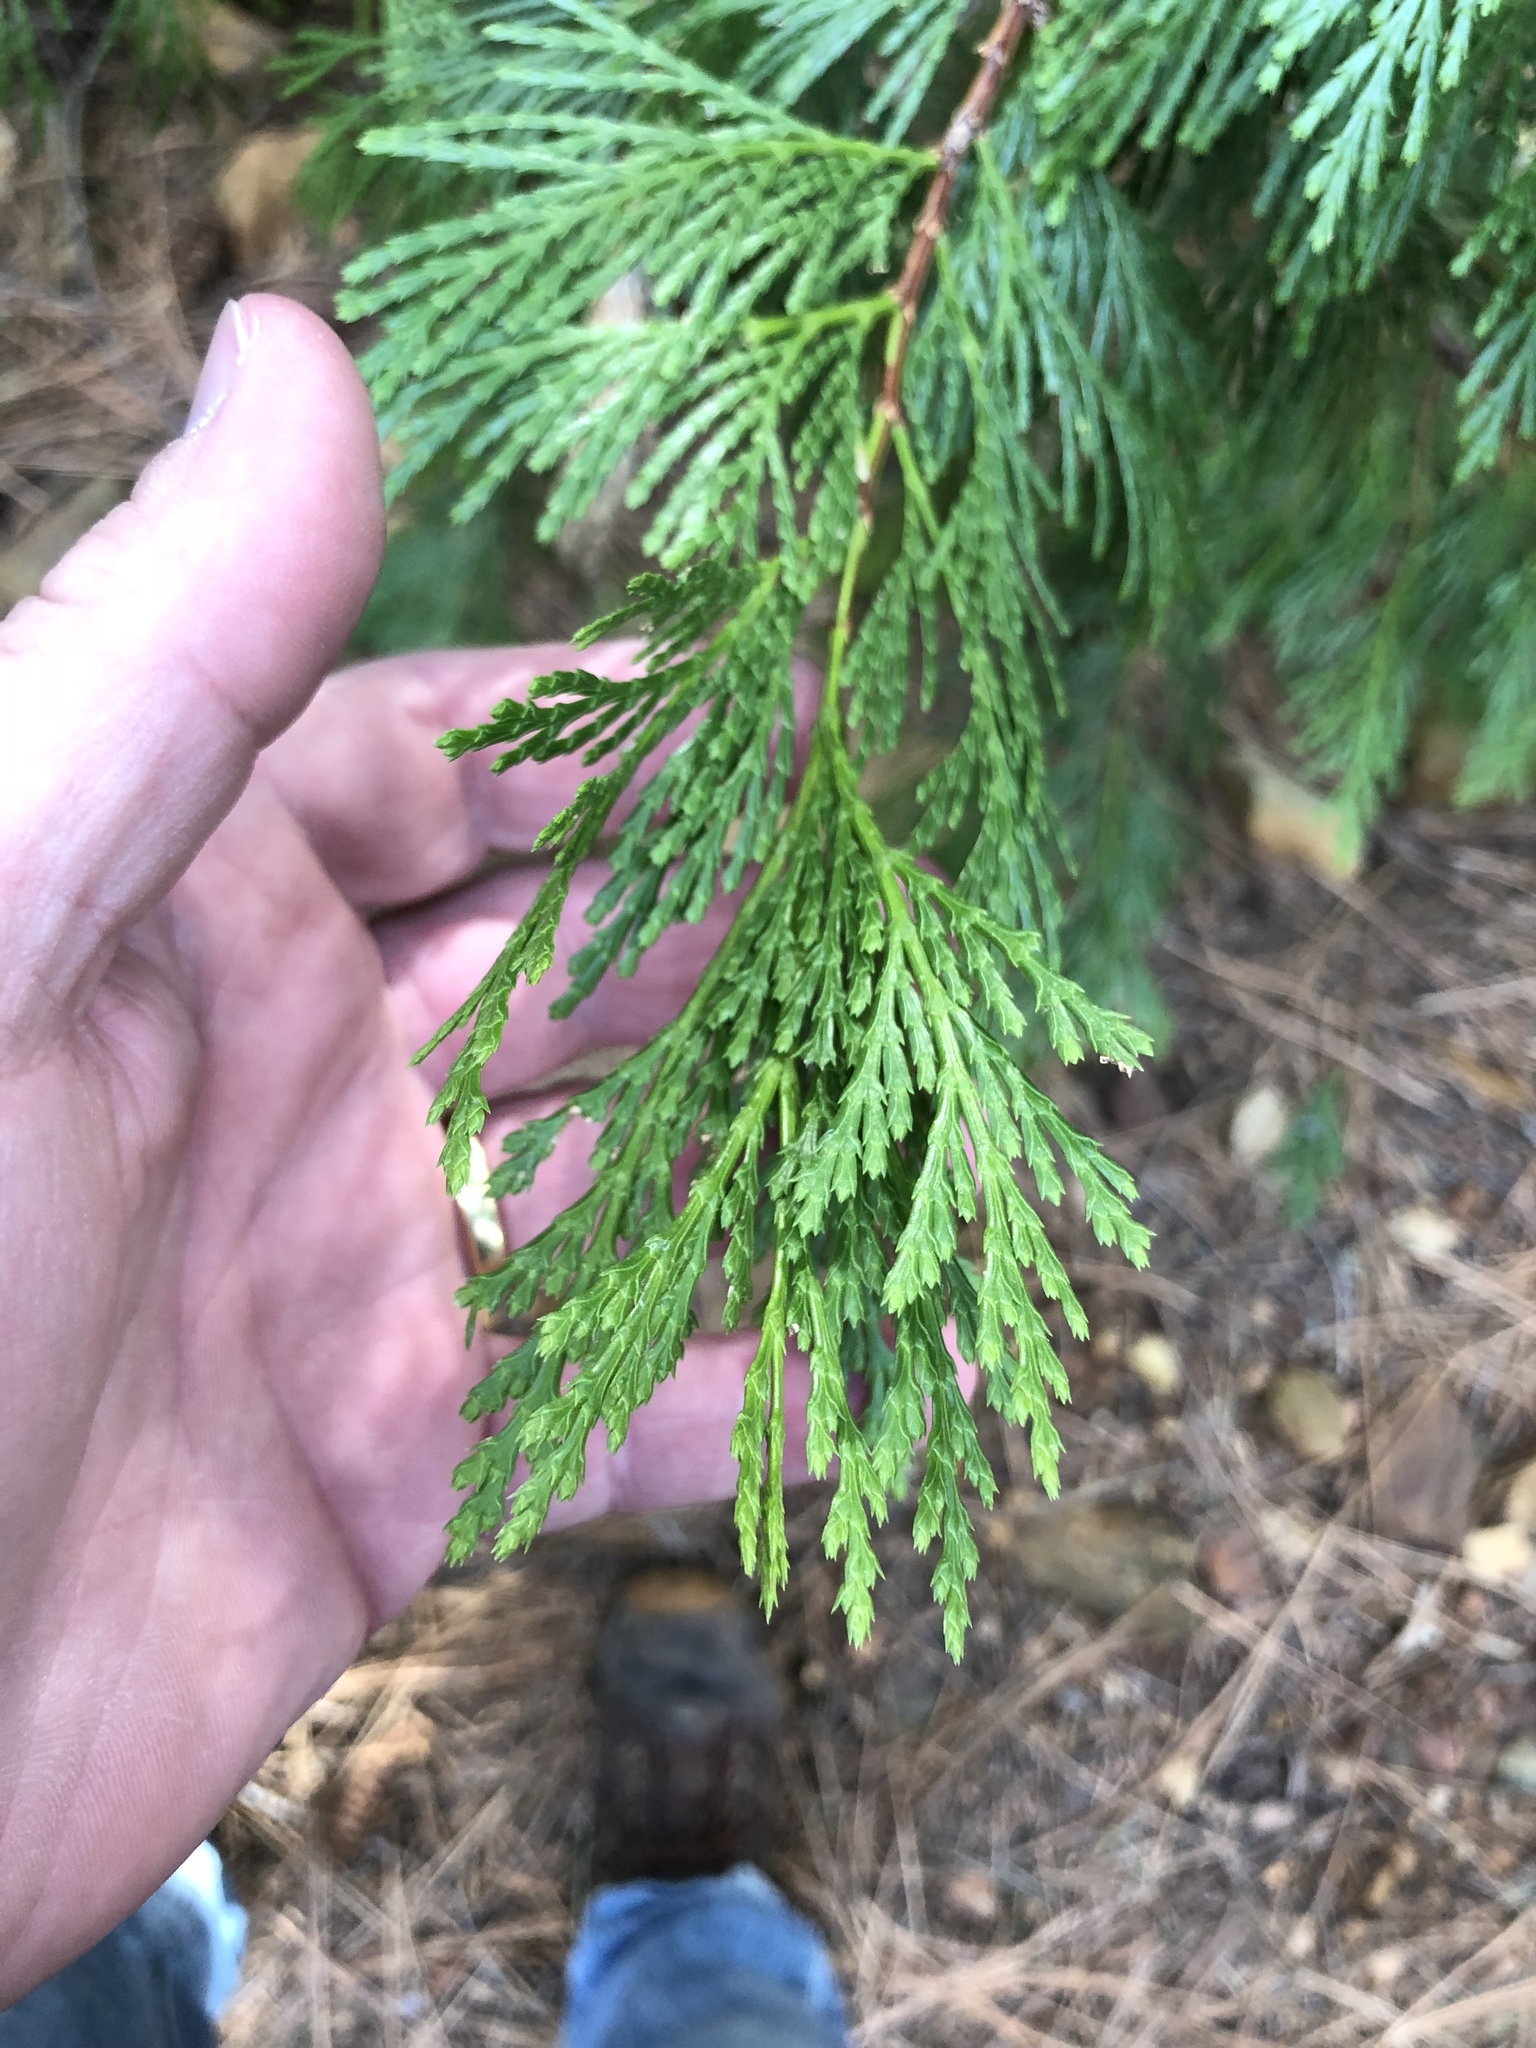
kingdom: Plantae
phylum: Tracheophyta
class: Pinopsida
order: Pinales
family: Cupressaceae
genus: Calocedrus
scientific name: Calocedrus decurrens
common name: Californian incense-cedar
